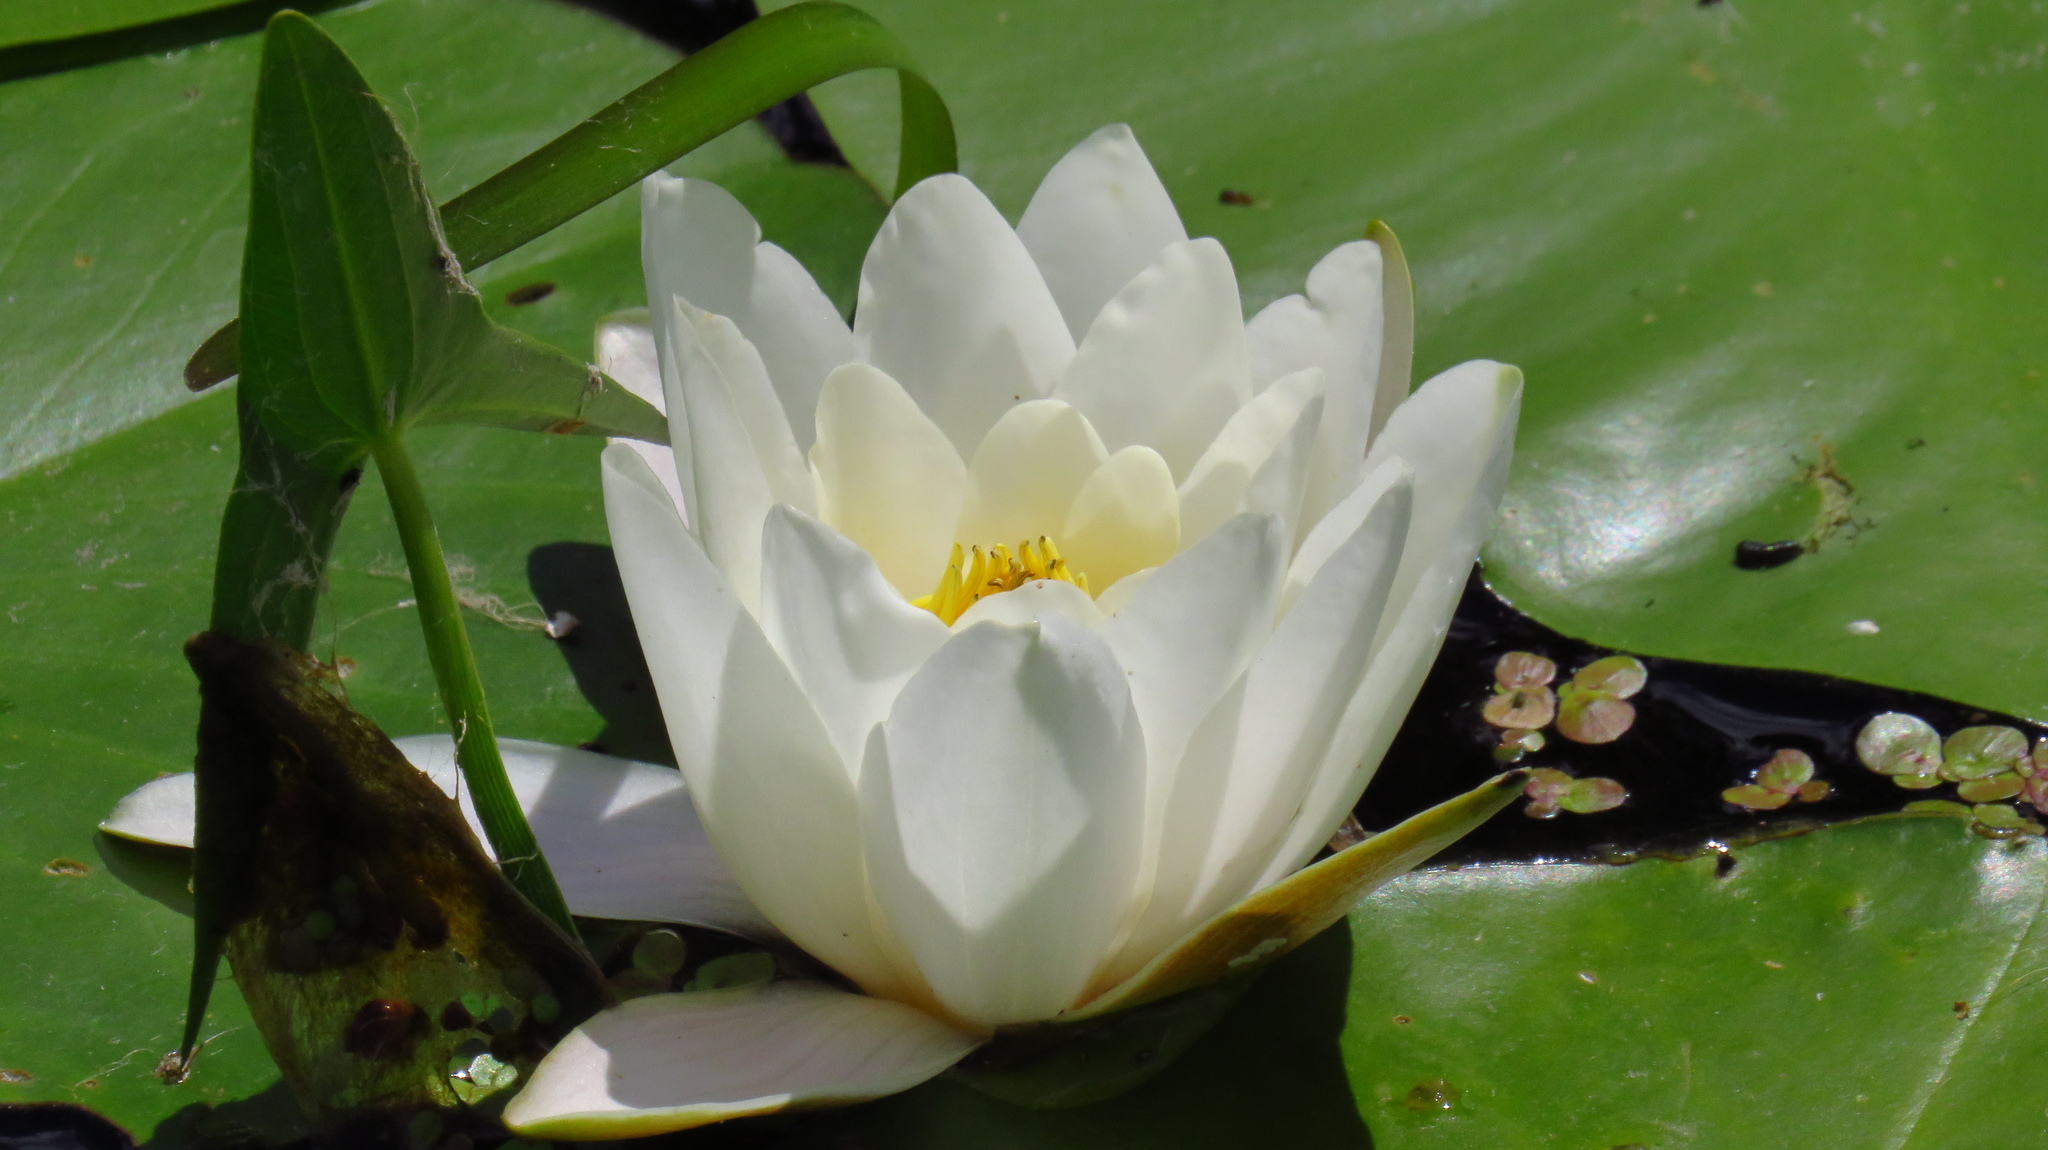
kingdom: Plantae
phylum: Tracheophyta
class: Magnoliopsida
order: Nymphaeales
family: Nymphaeaceae
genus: Nymphaea
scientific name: Nymphaea candida
